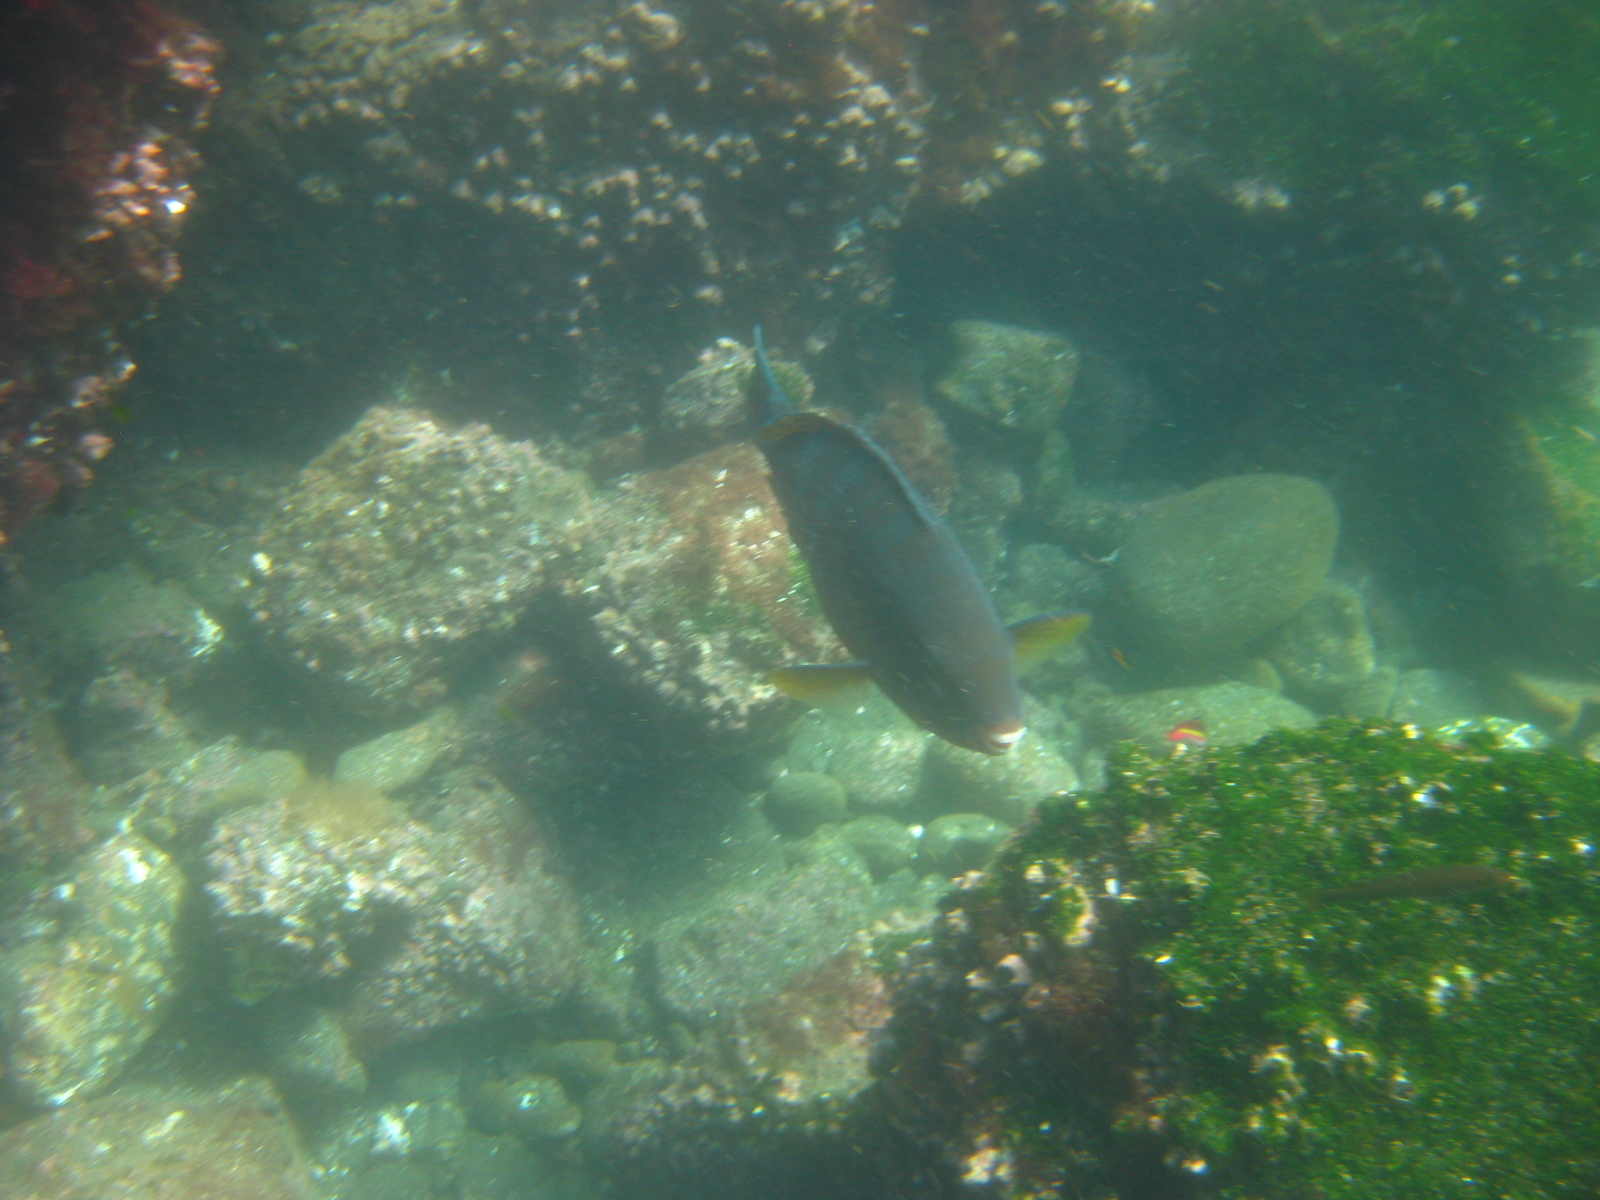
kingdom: Animalia
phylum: Chordata
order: Perciformes
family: Scaridae
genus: Scarus
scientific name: Scarus ghobban
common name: Blue-barred parrotfish
